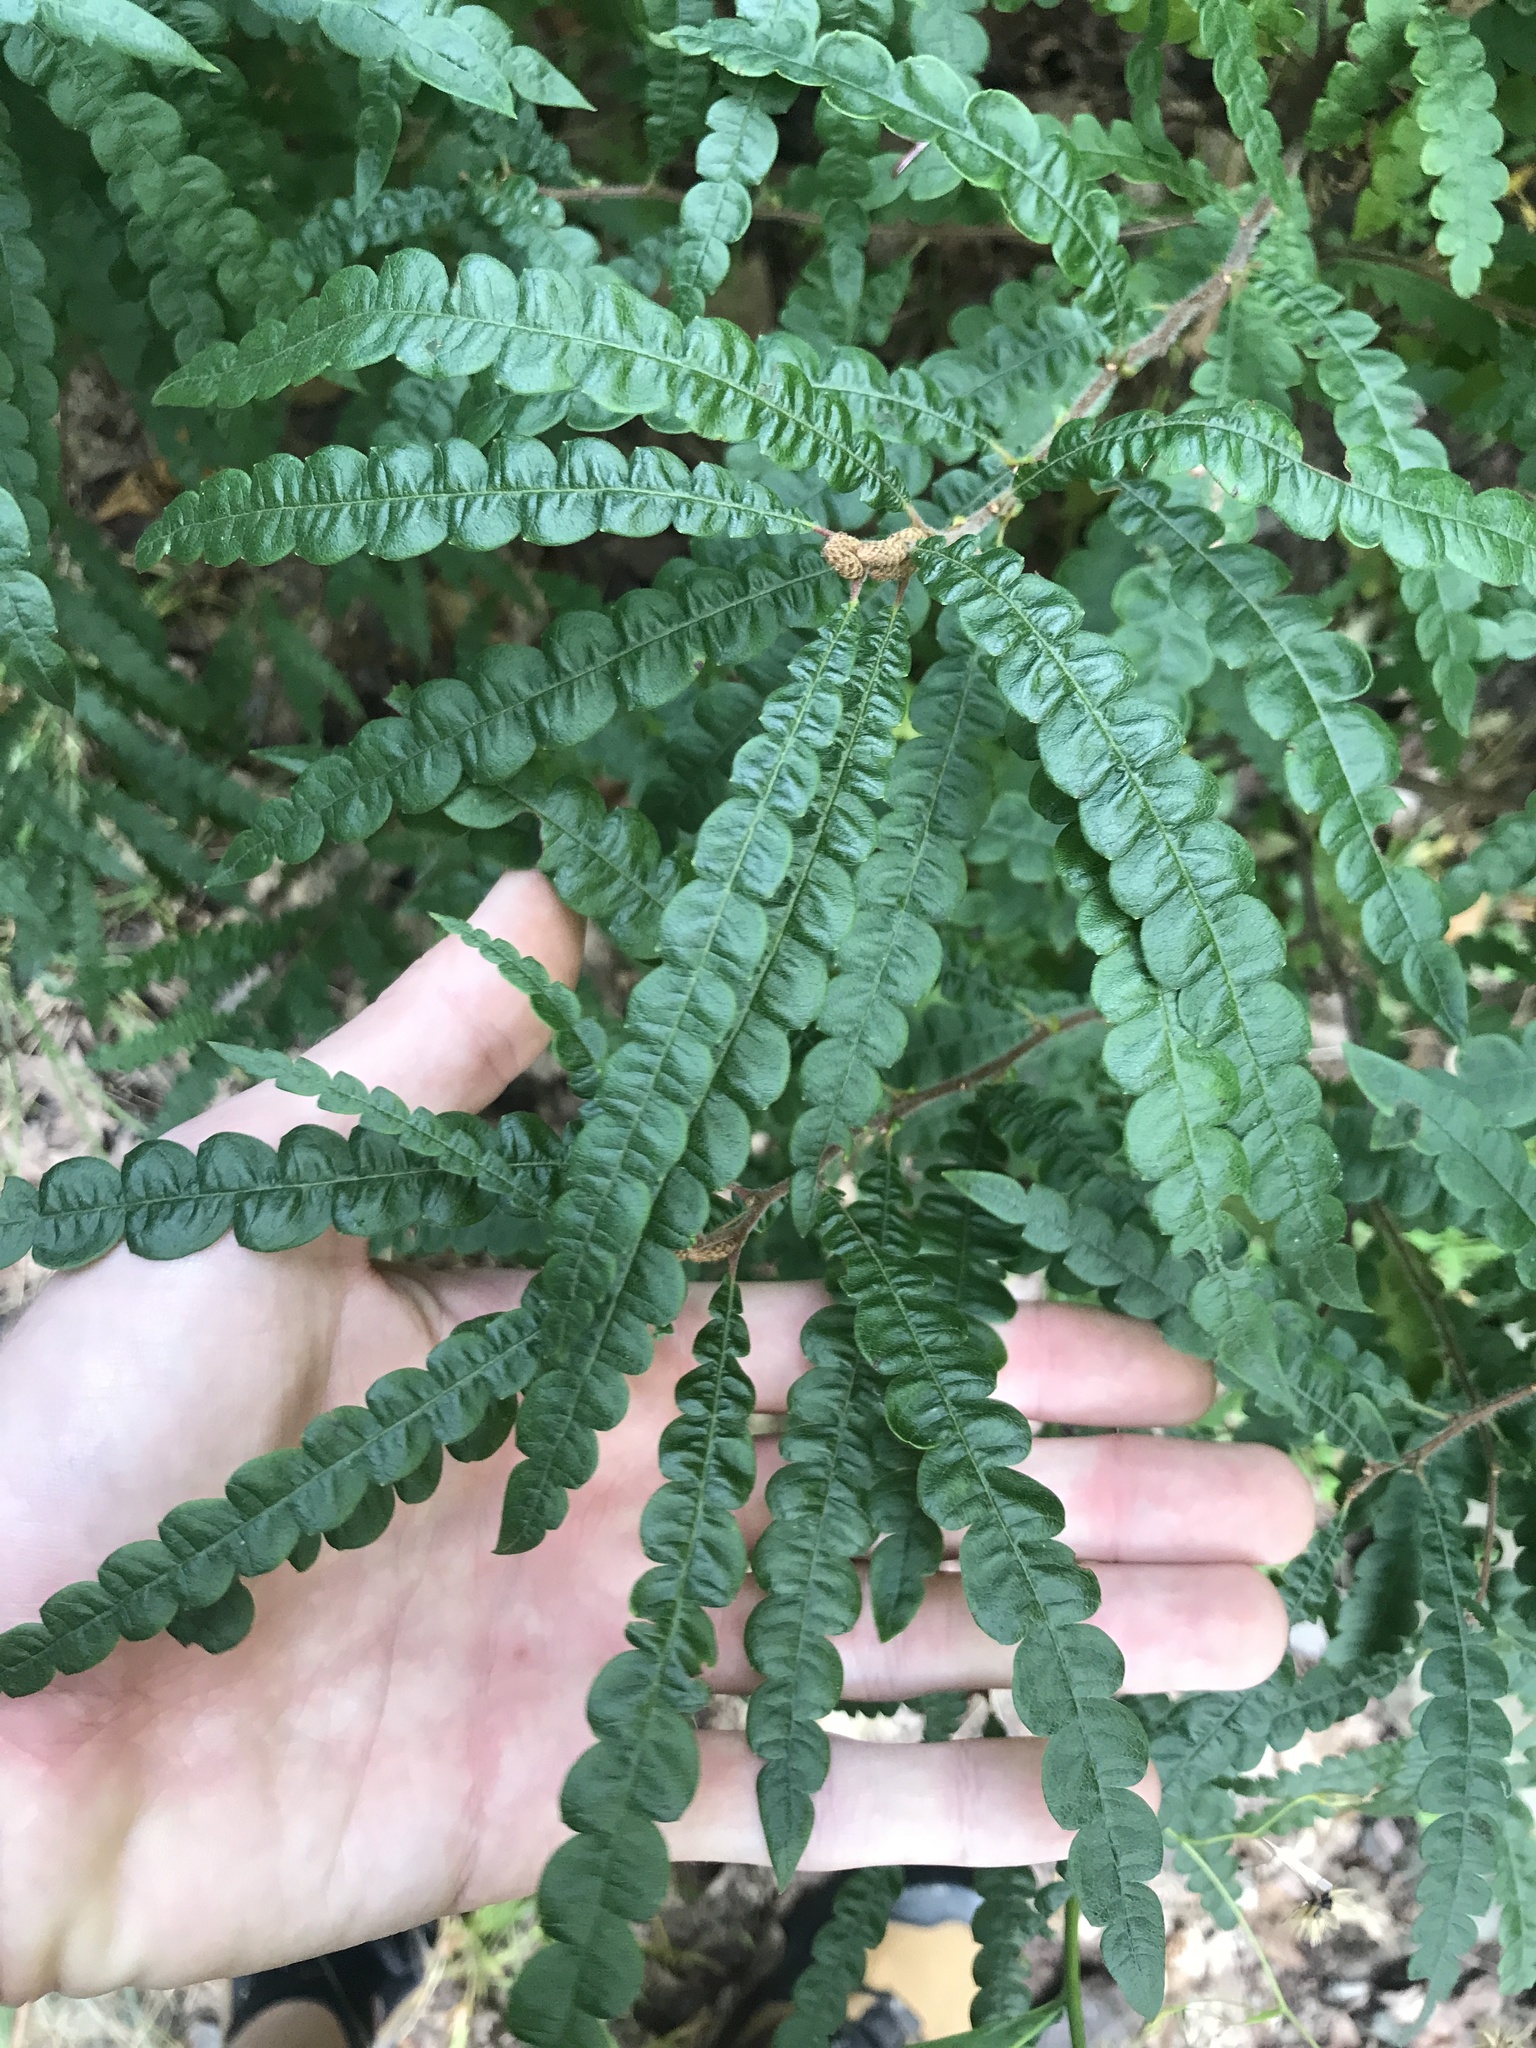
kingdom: Plantae
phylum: Tracheophyta
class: Magnoliopsida
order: Fagales
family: Myricaceae
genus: Comptonia
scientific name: Comptonia peregrina
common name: Sweet-fern
